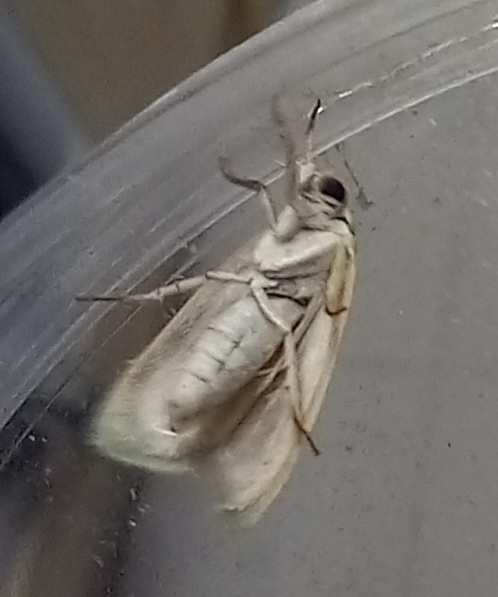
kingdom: Animalia
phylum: Arthropoda
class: Insecta
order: Lepidoptera
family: Nolidae
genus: Earias
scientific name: Earias insulana
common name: Egyptian bollworm
